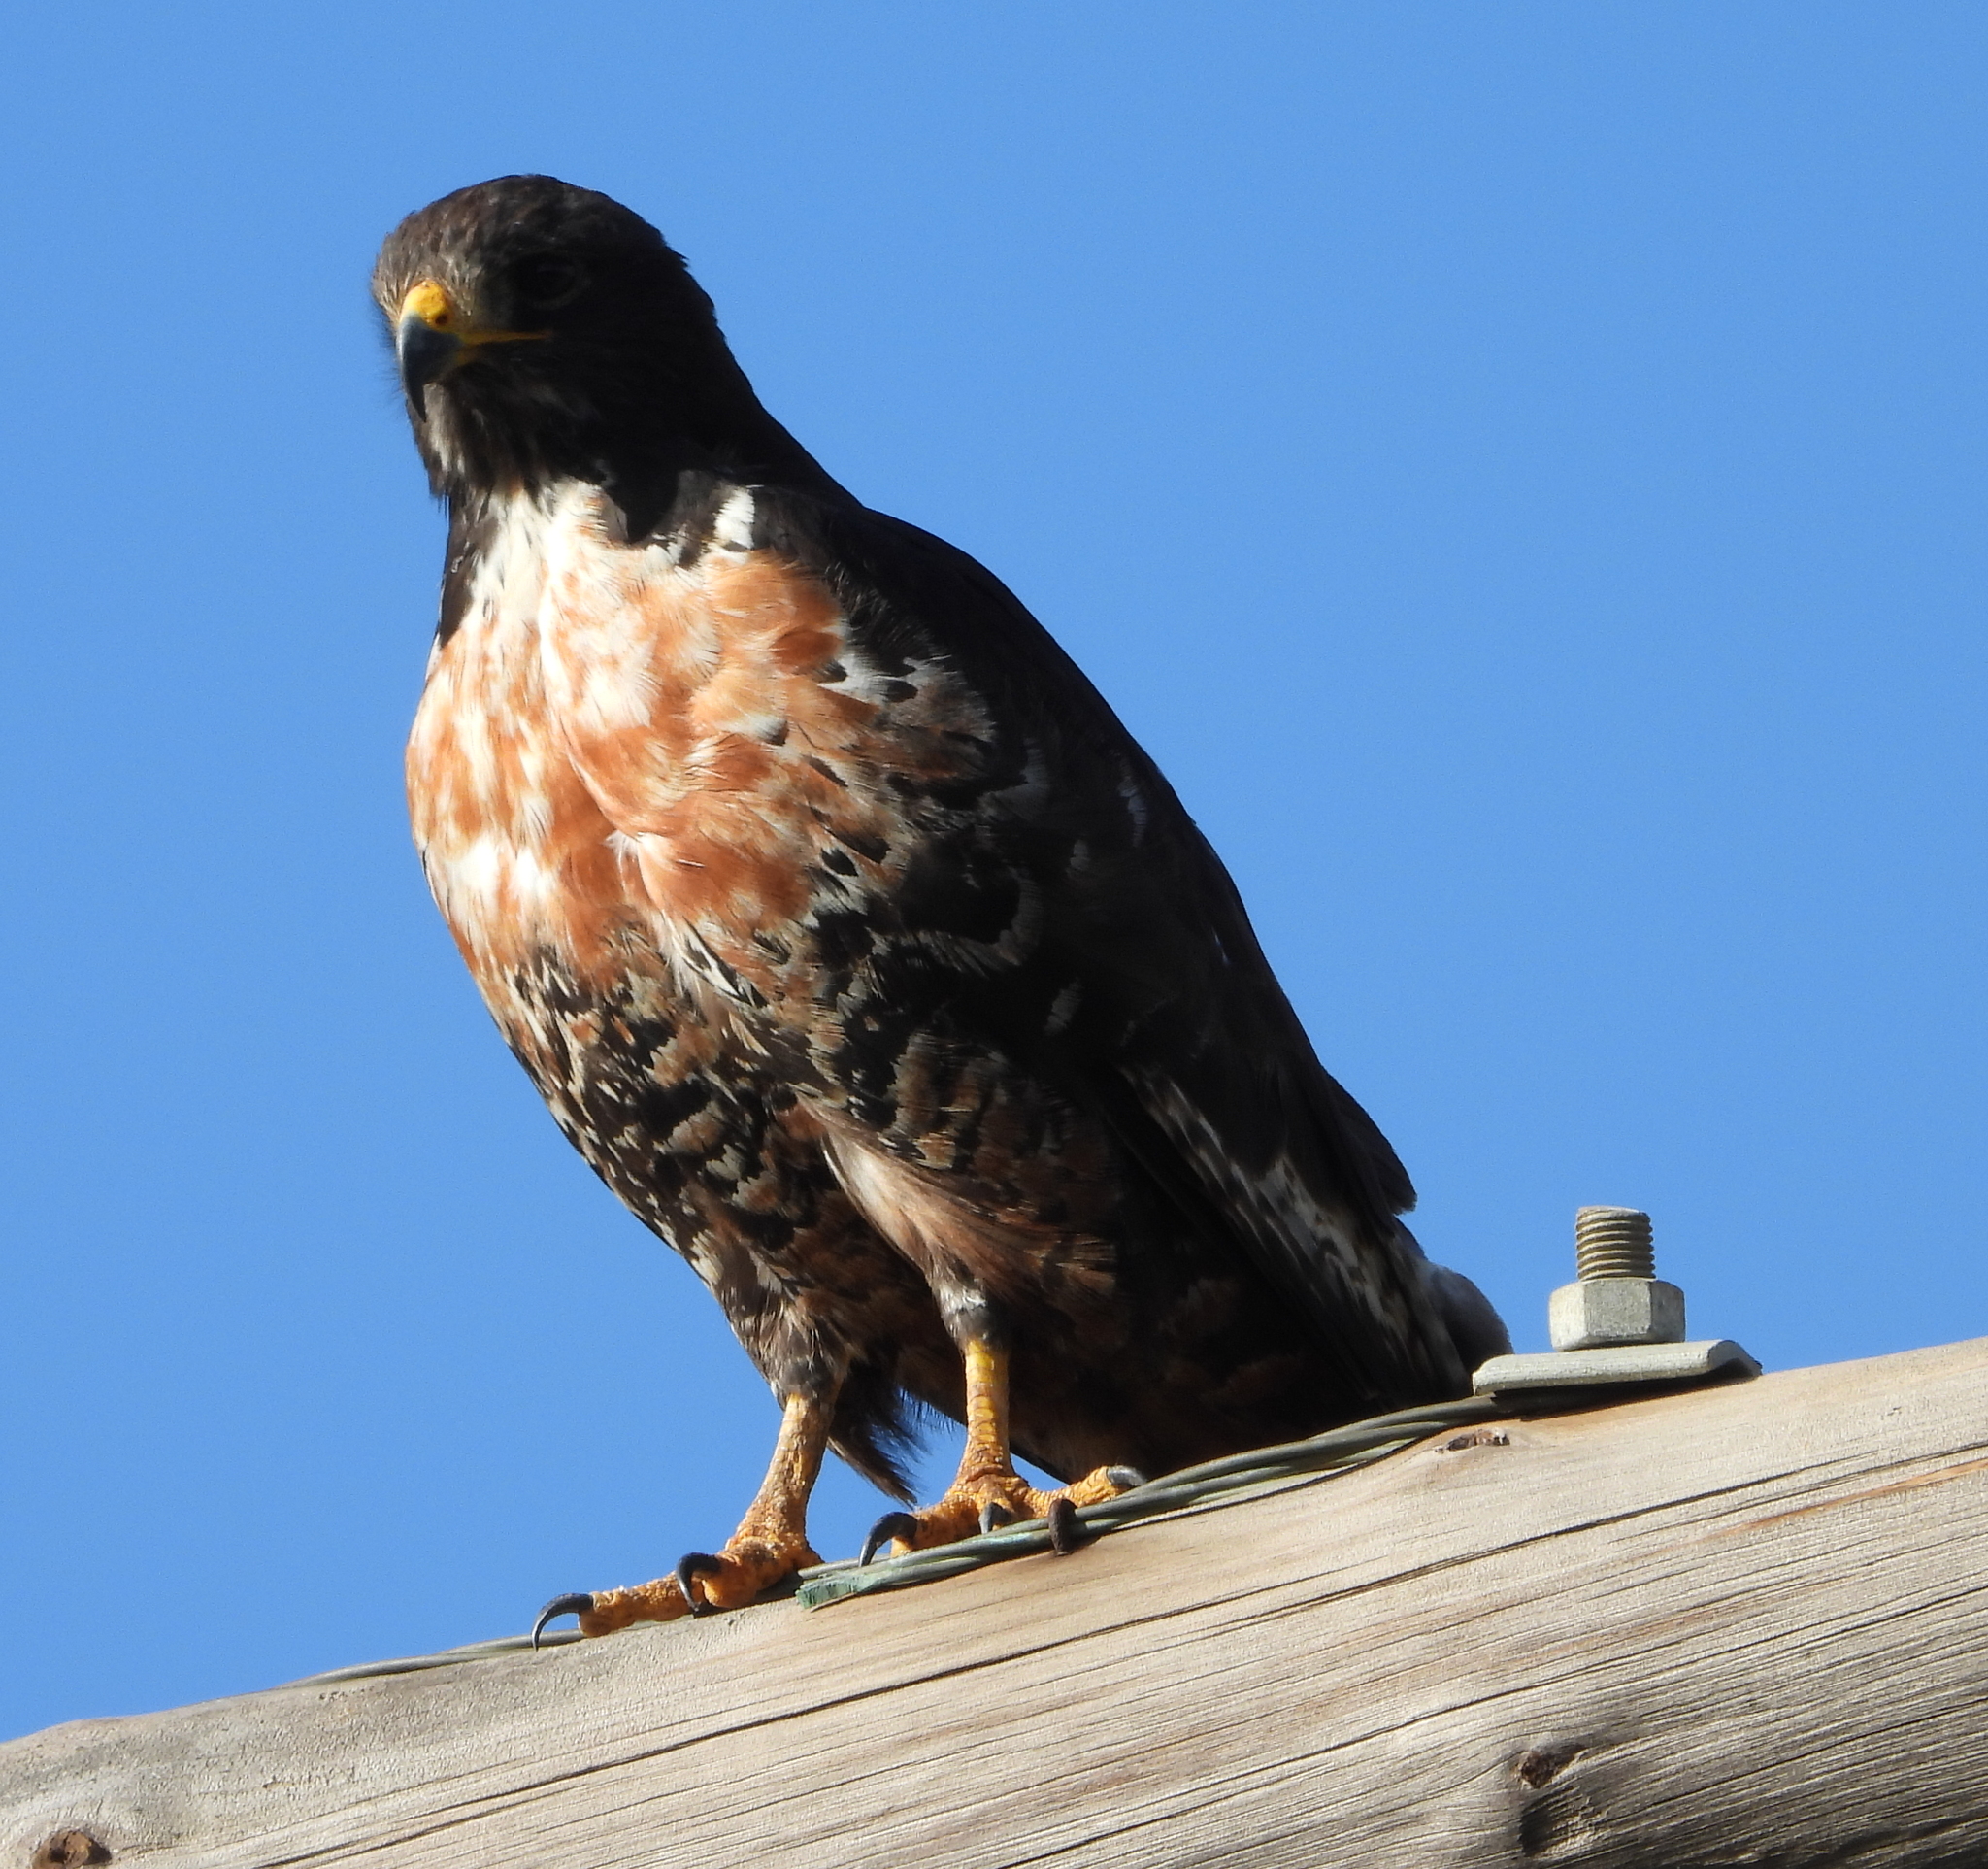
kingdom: Animalia
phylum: Chordata
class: Aves
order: Accipitriformes
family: Accipitridae
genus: Buteo
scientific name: Buteo rufofuscus
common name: Jackal buzzard
